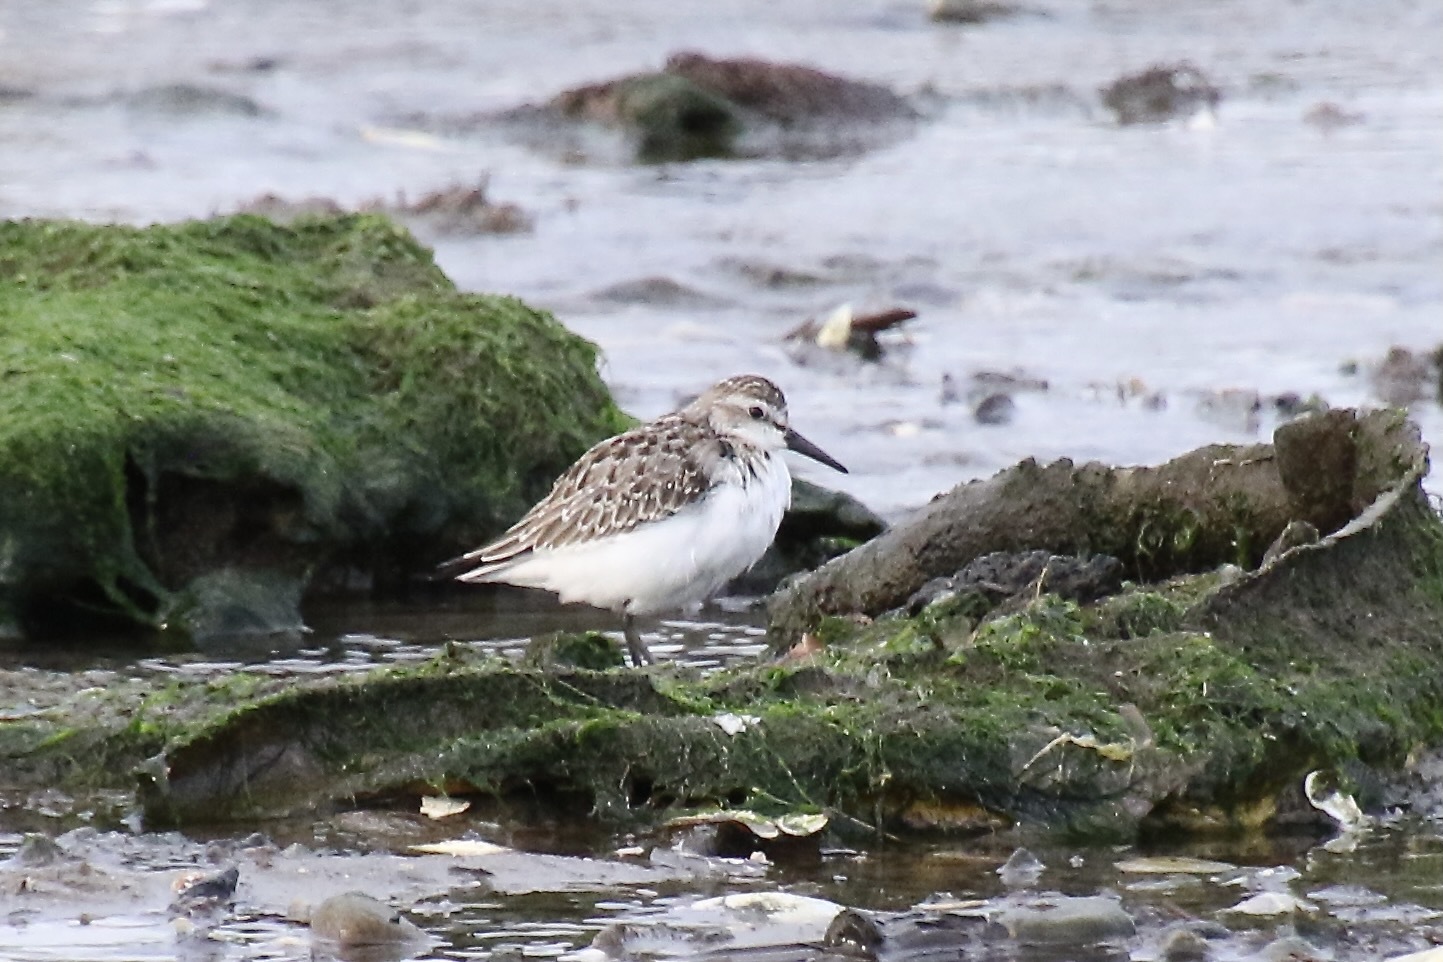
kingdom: Animalia
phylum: Chordata
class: Aves
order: Charadriiformes
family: Scolopacidae
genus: Calidris
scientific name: Calidris pusilla
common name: Semipalmated sandpiper
